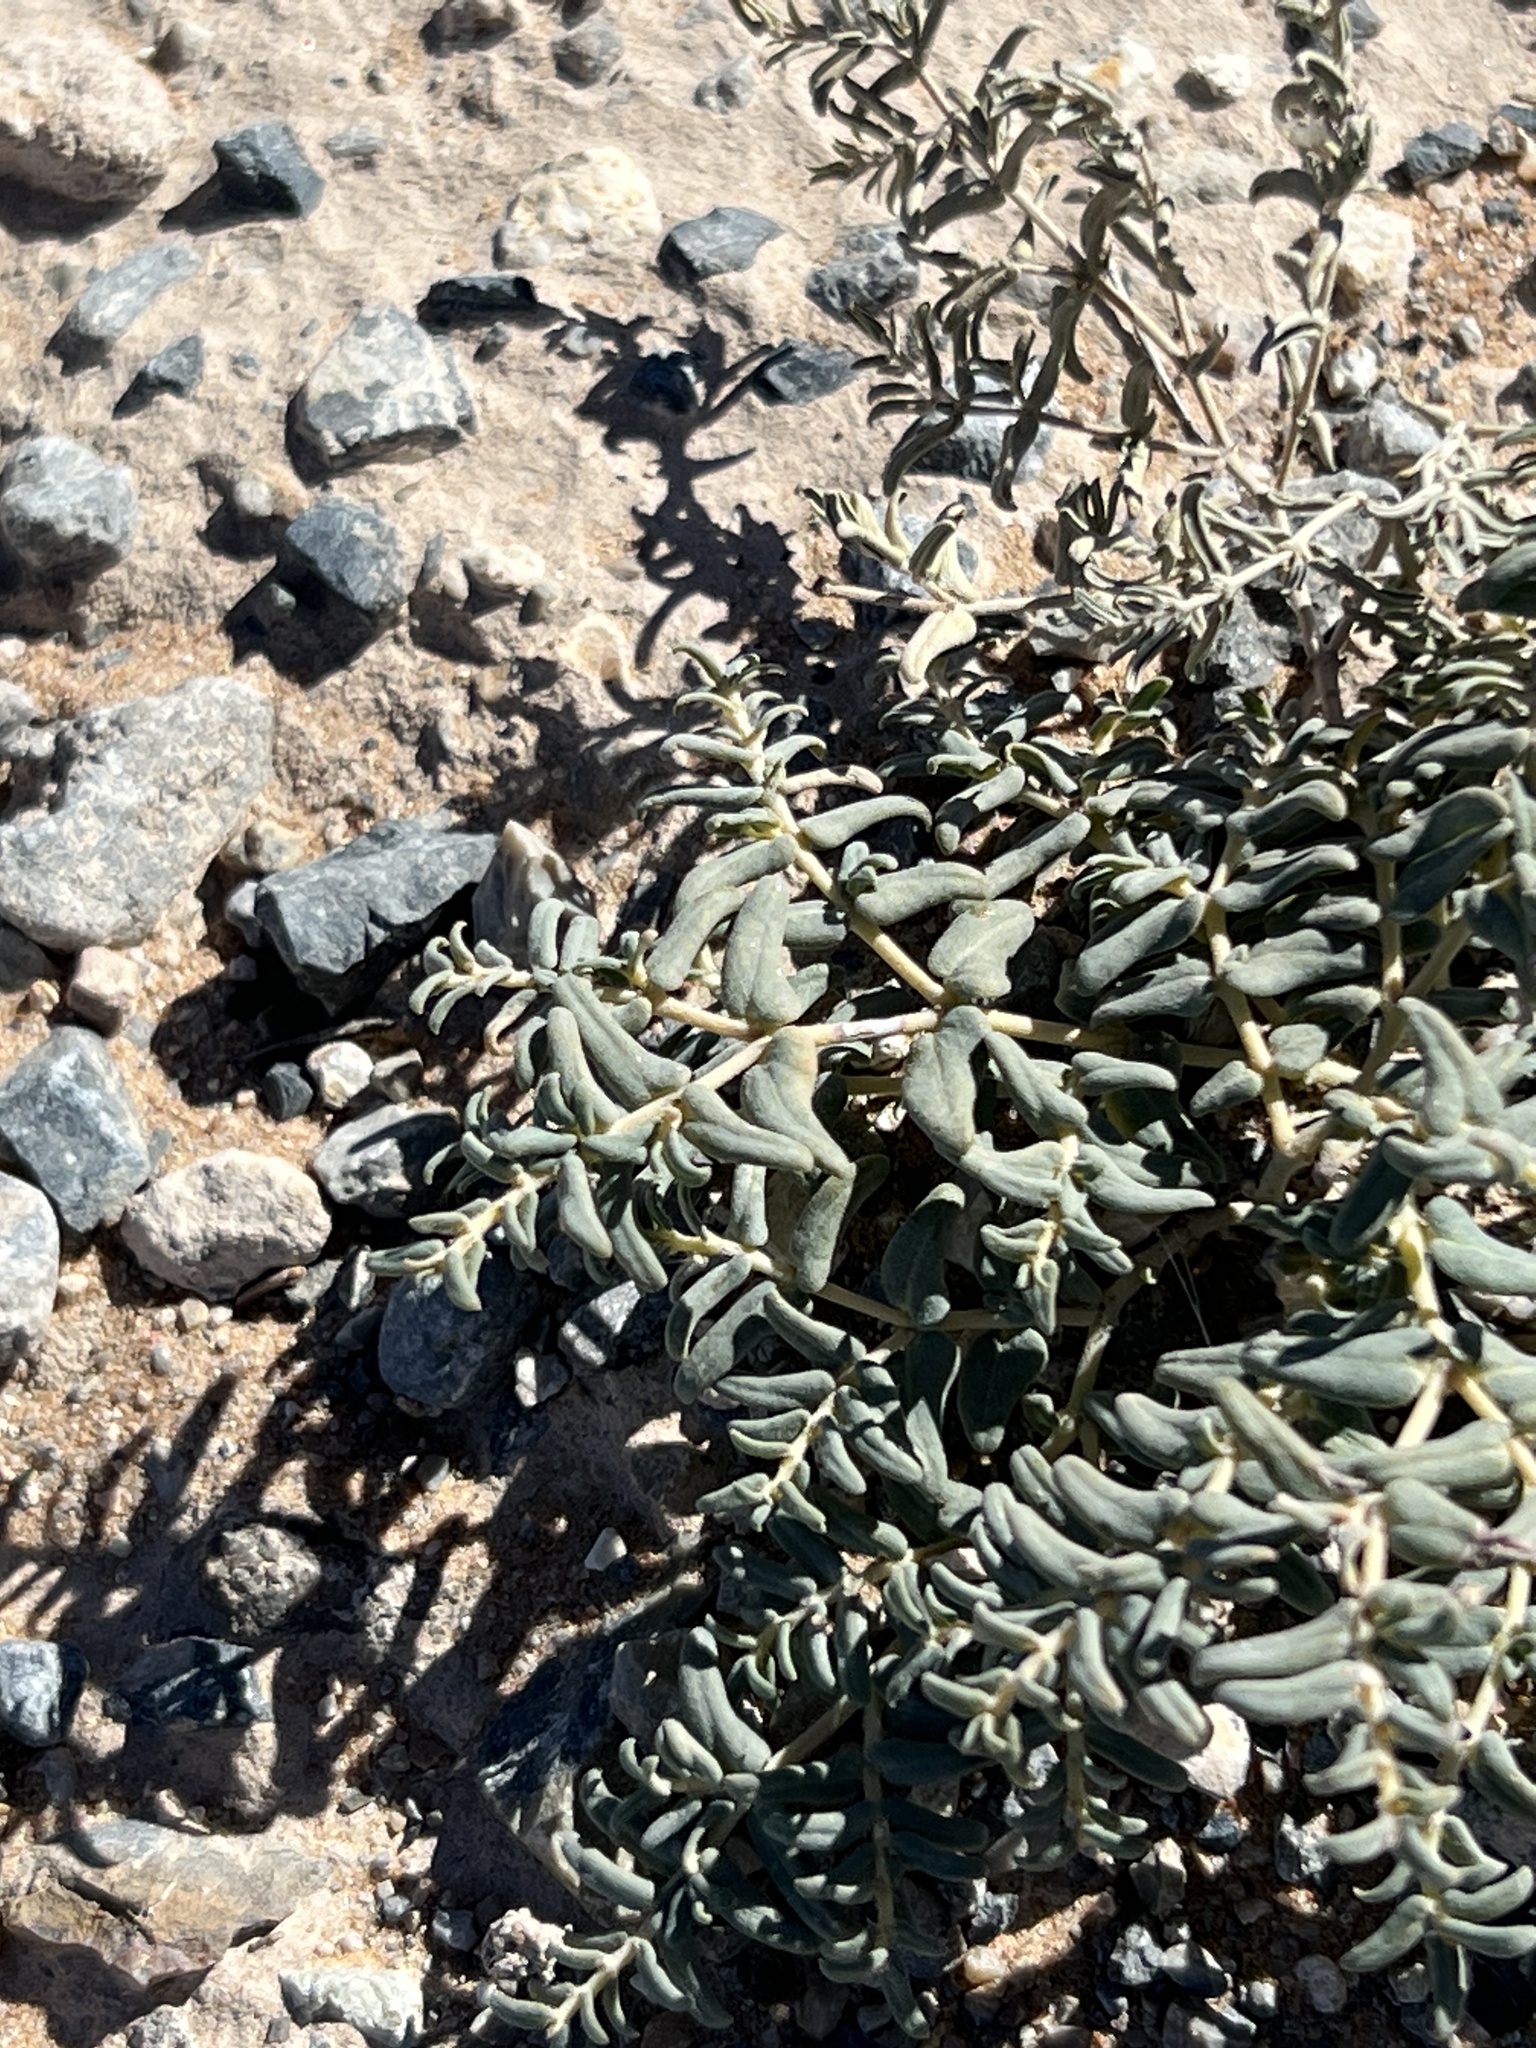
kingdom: Plantae
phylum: Tracheophyta
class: Magnoliopsida
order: Malpighiales
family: Euphorbiaceae
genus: Euphorbia
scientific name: Euphorbia lata
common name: Hoary euphorbia
